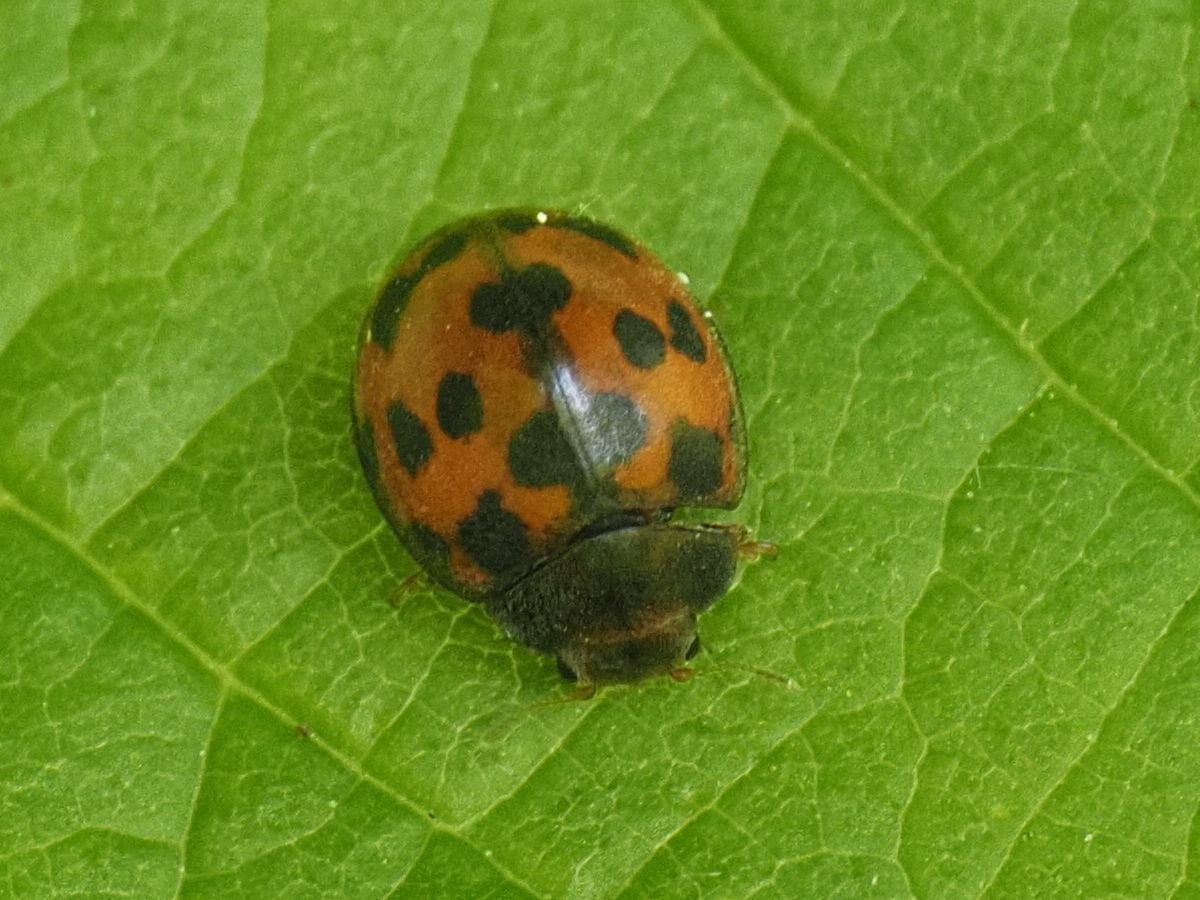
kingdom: Animalia
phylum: Arthropoda
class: Insecta
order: Coleoptera
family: Coccinellidae
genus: Subcoccinella
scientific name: Subcoccinella vigintiquatuorpunctata
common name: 24-spot ladybird
